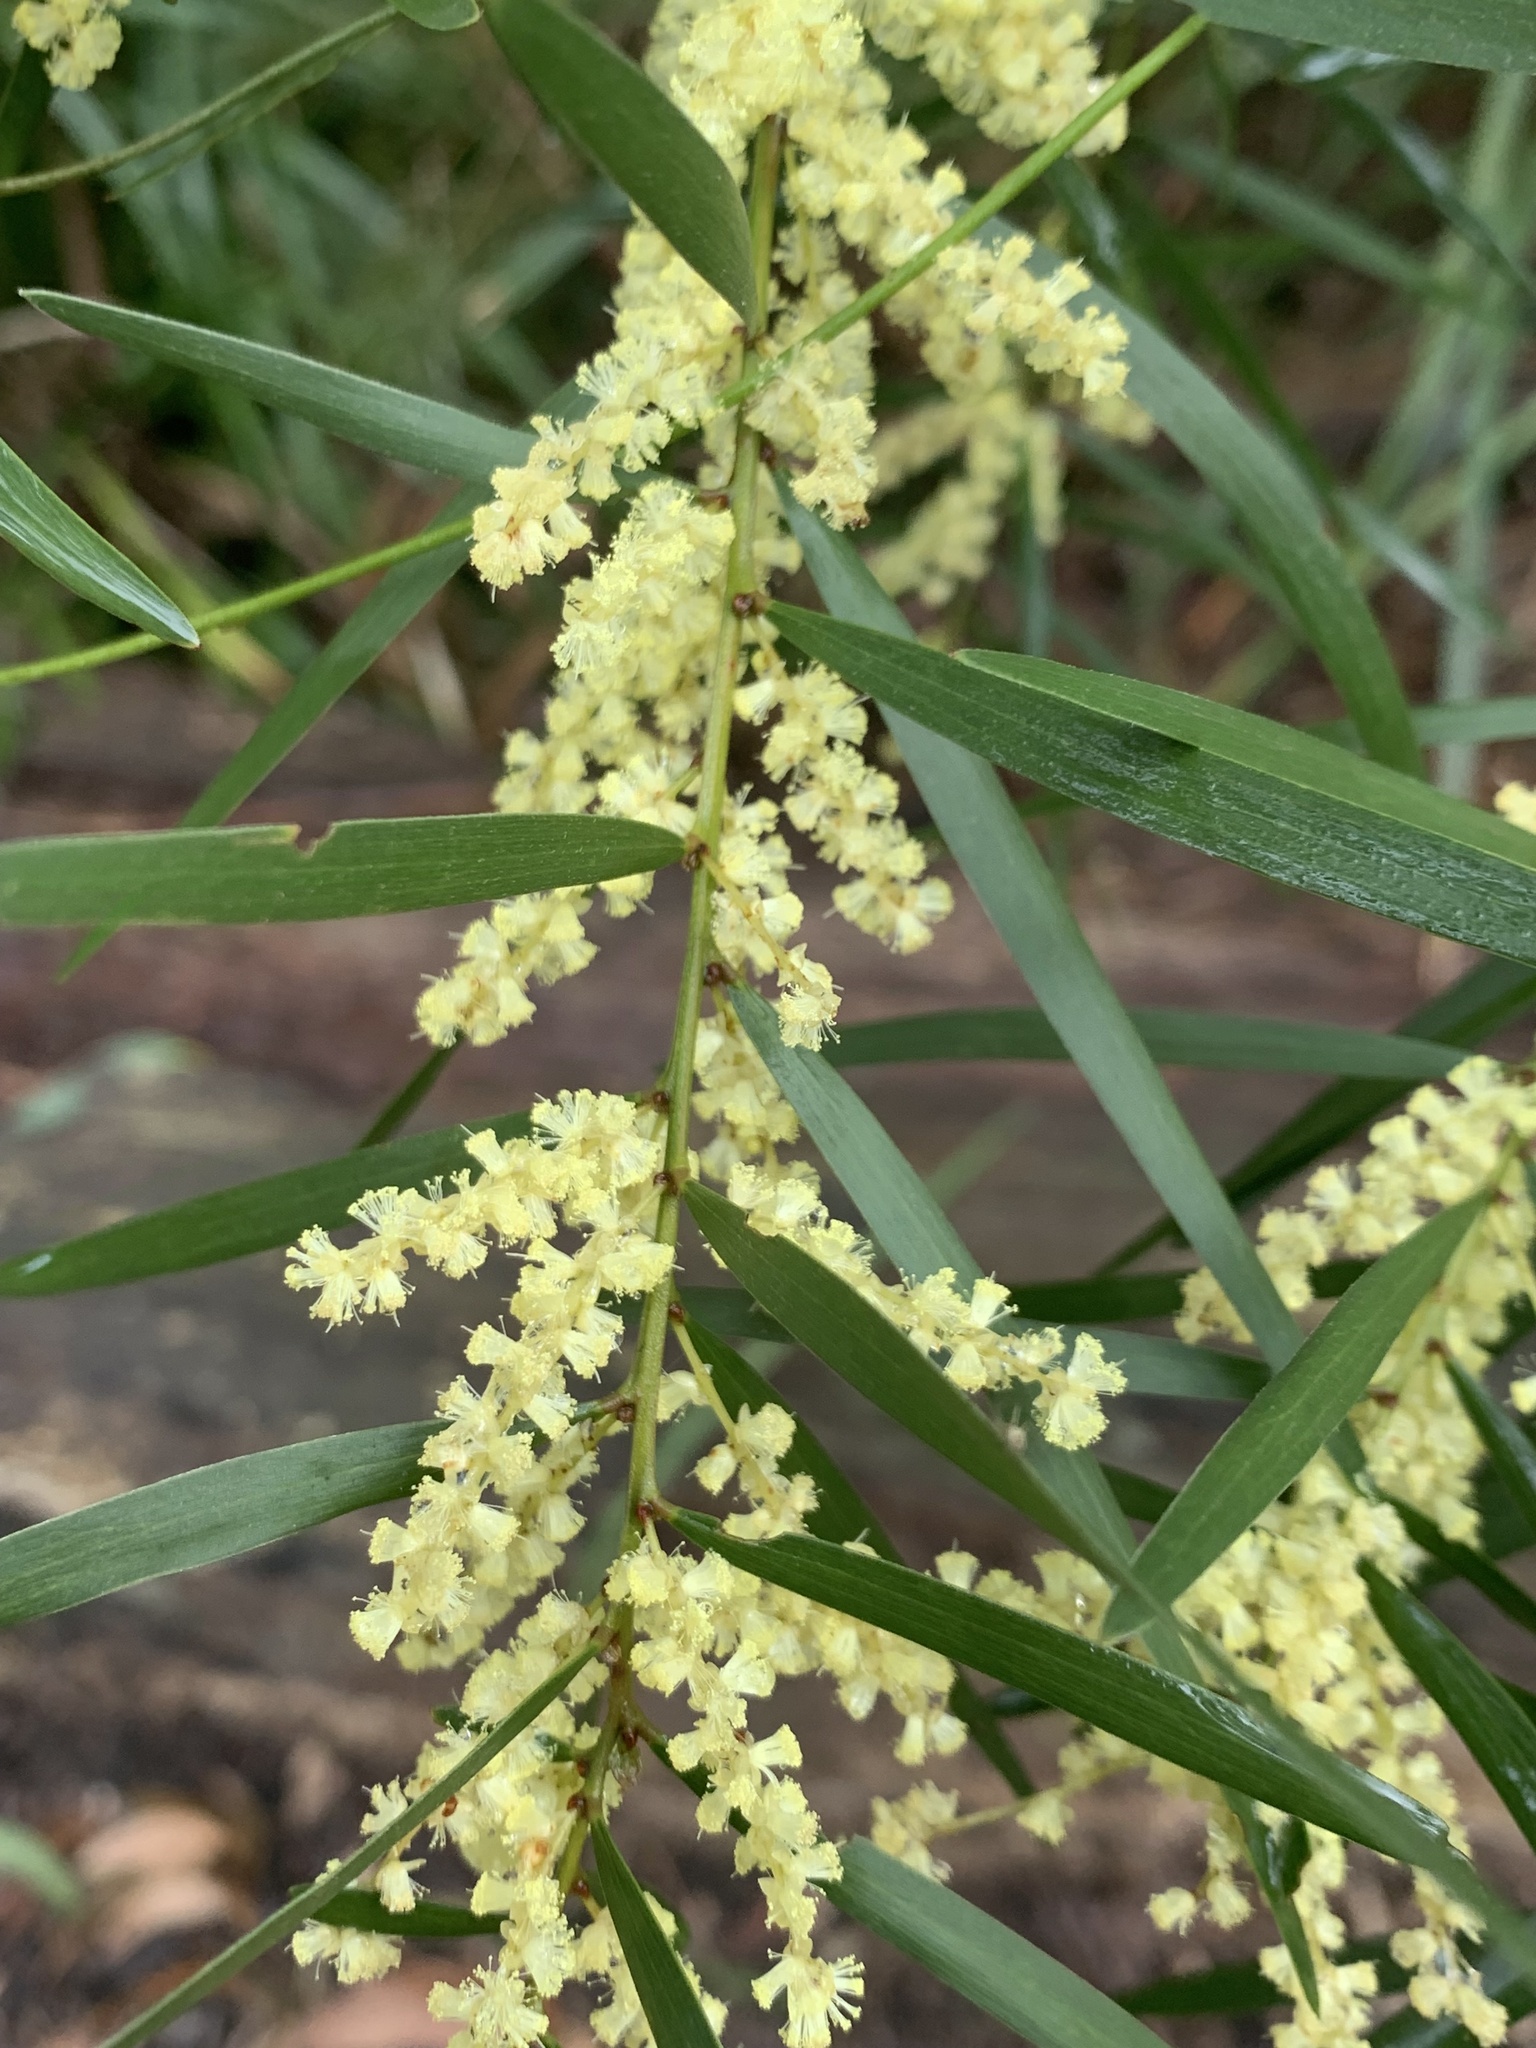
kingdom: Plantae
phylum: Tracheophyta
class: Magnoliopsida
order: Fabales
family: Fabaceae
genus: Acacia
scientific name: Acacia floribunda
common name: Gossamer wattle
